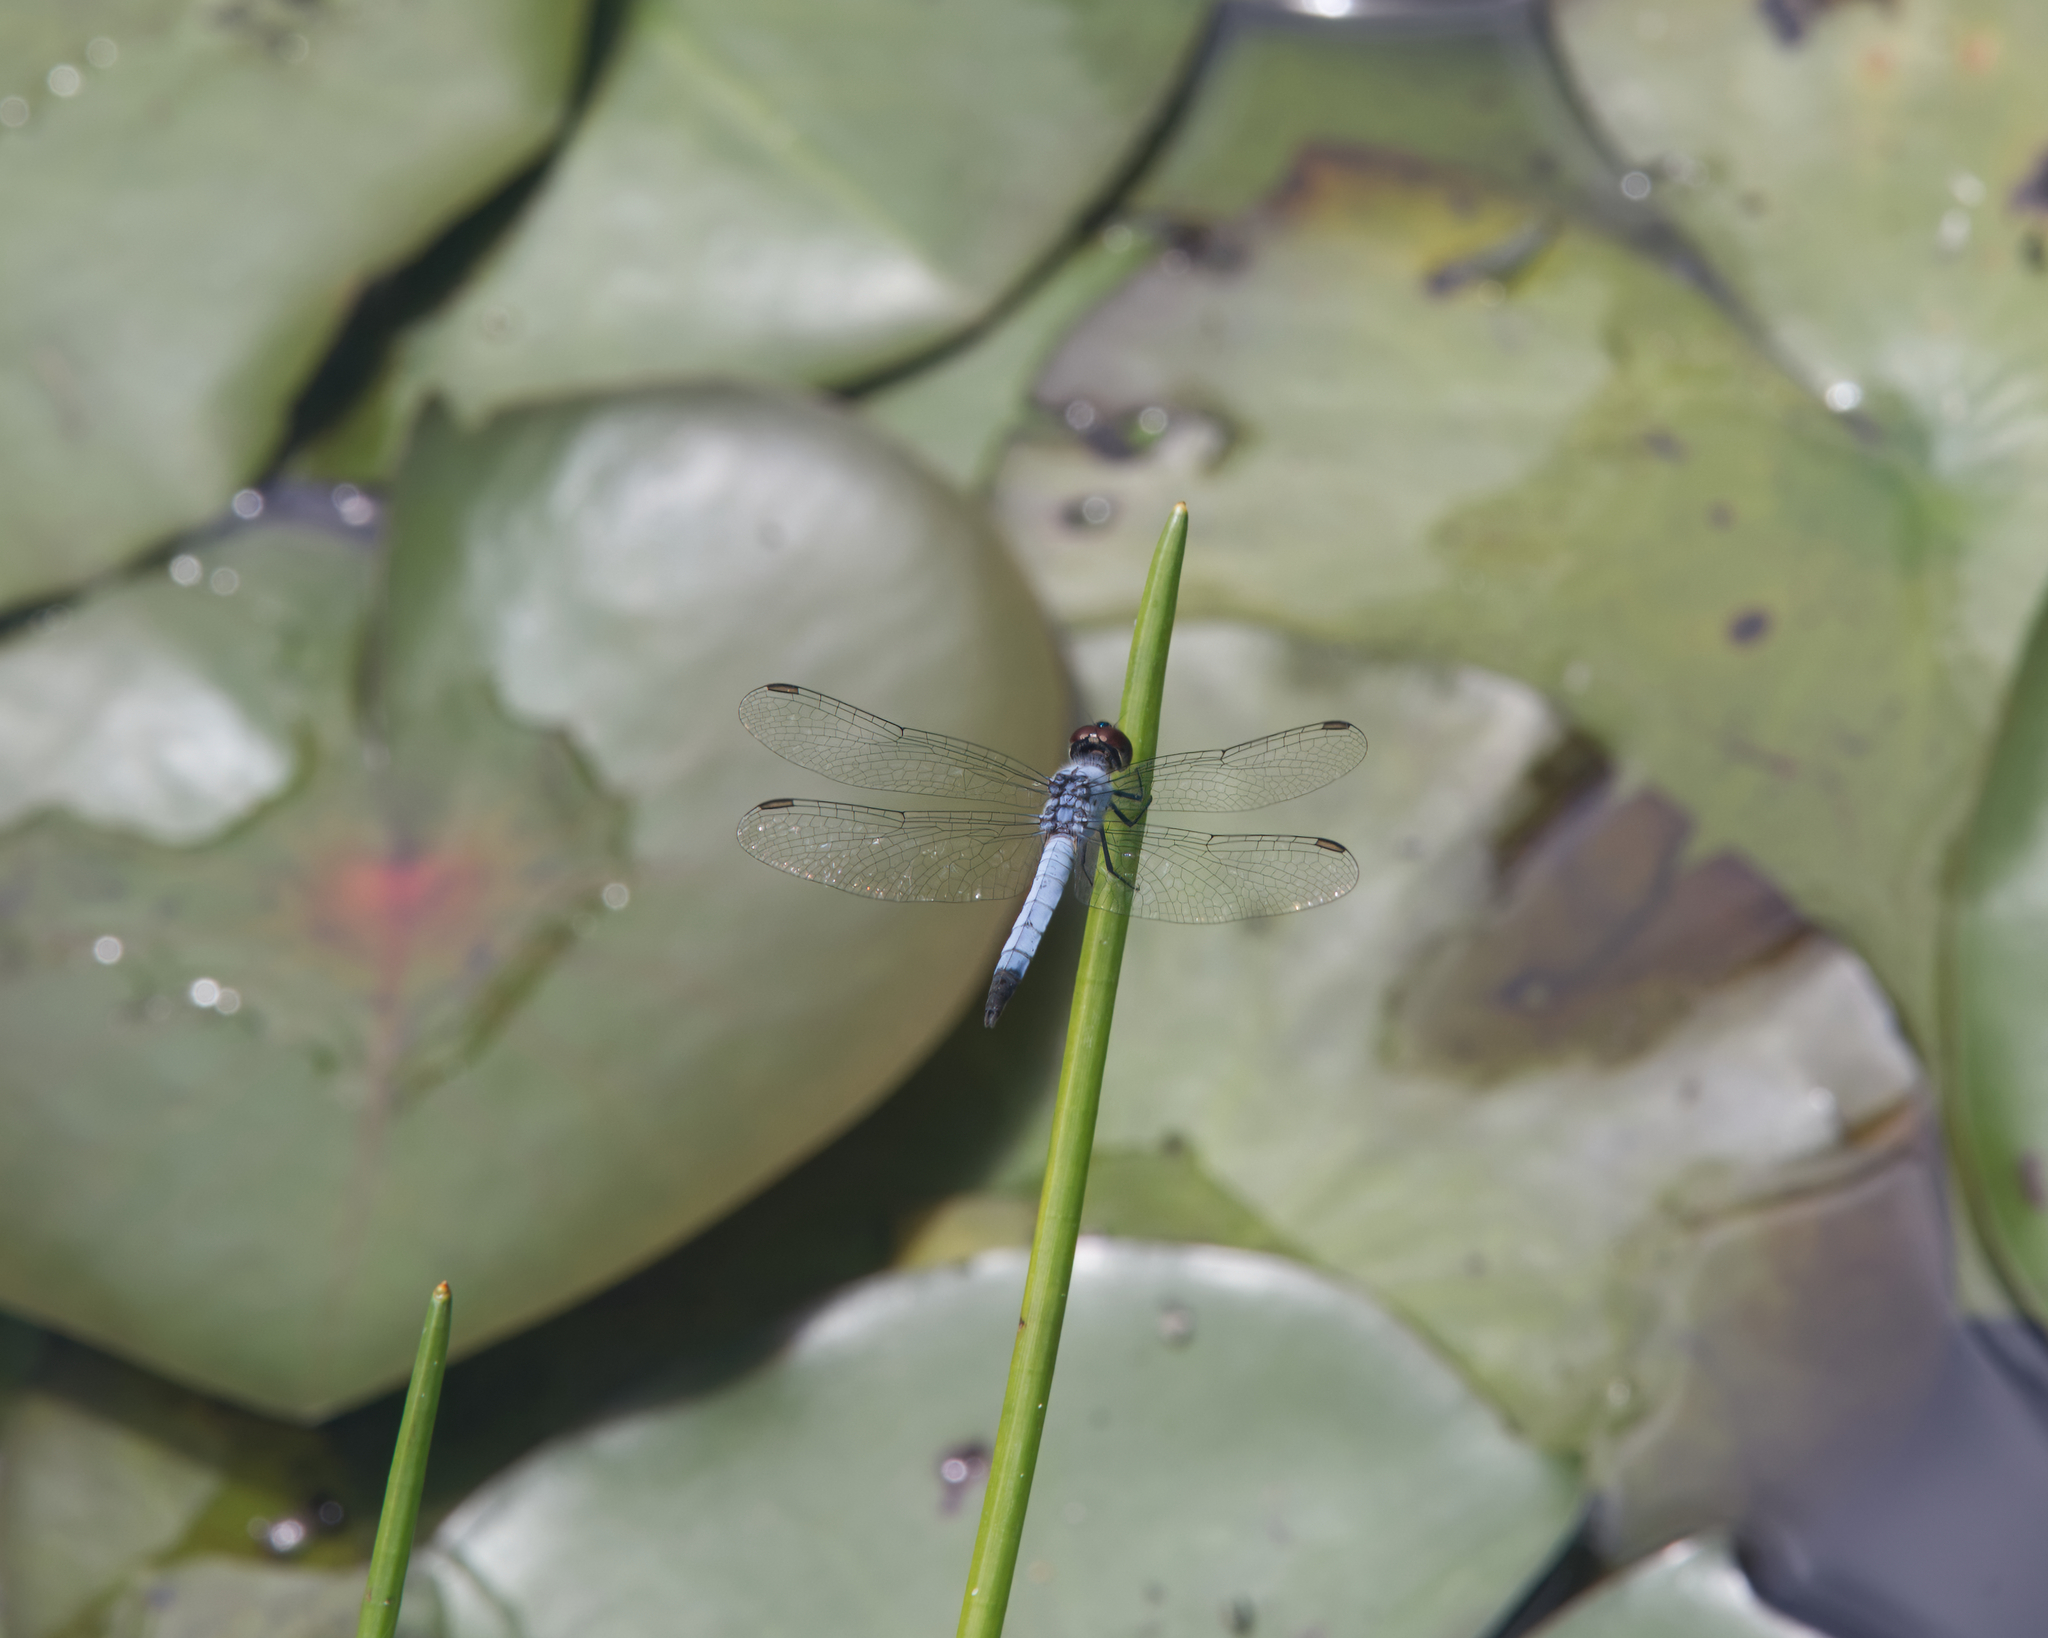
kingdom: Animalia
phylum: Arthropoda
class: Insecta
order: Odonata
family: Libellulidae
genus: Brachydiplax
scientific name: Brachydiplax denticauda
